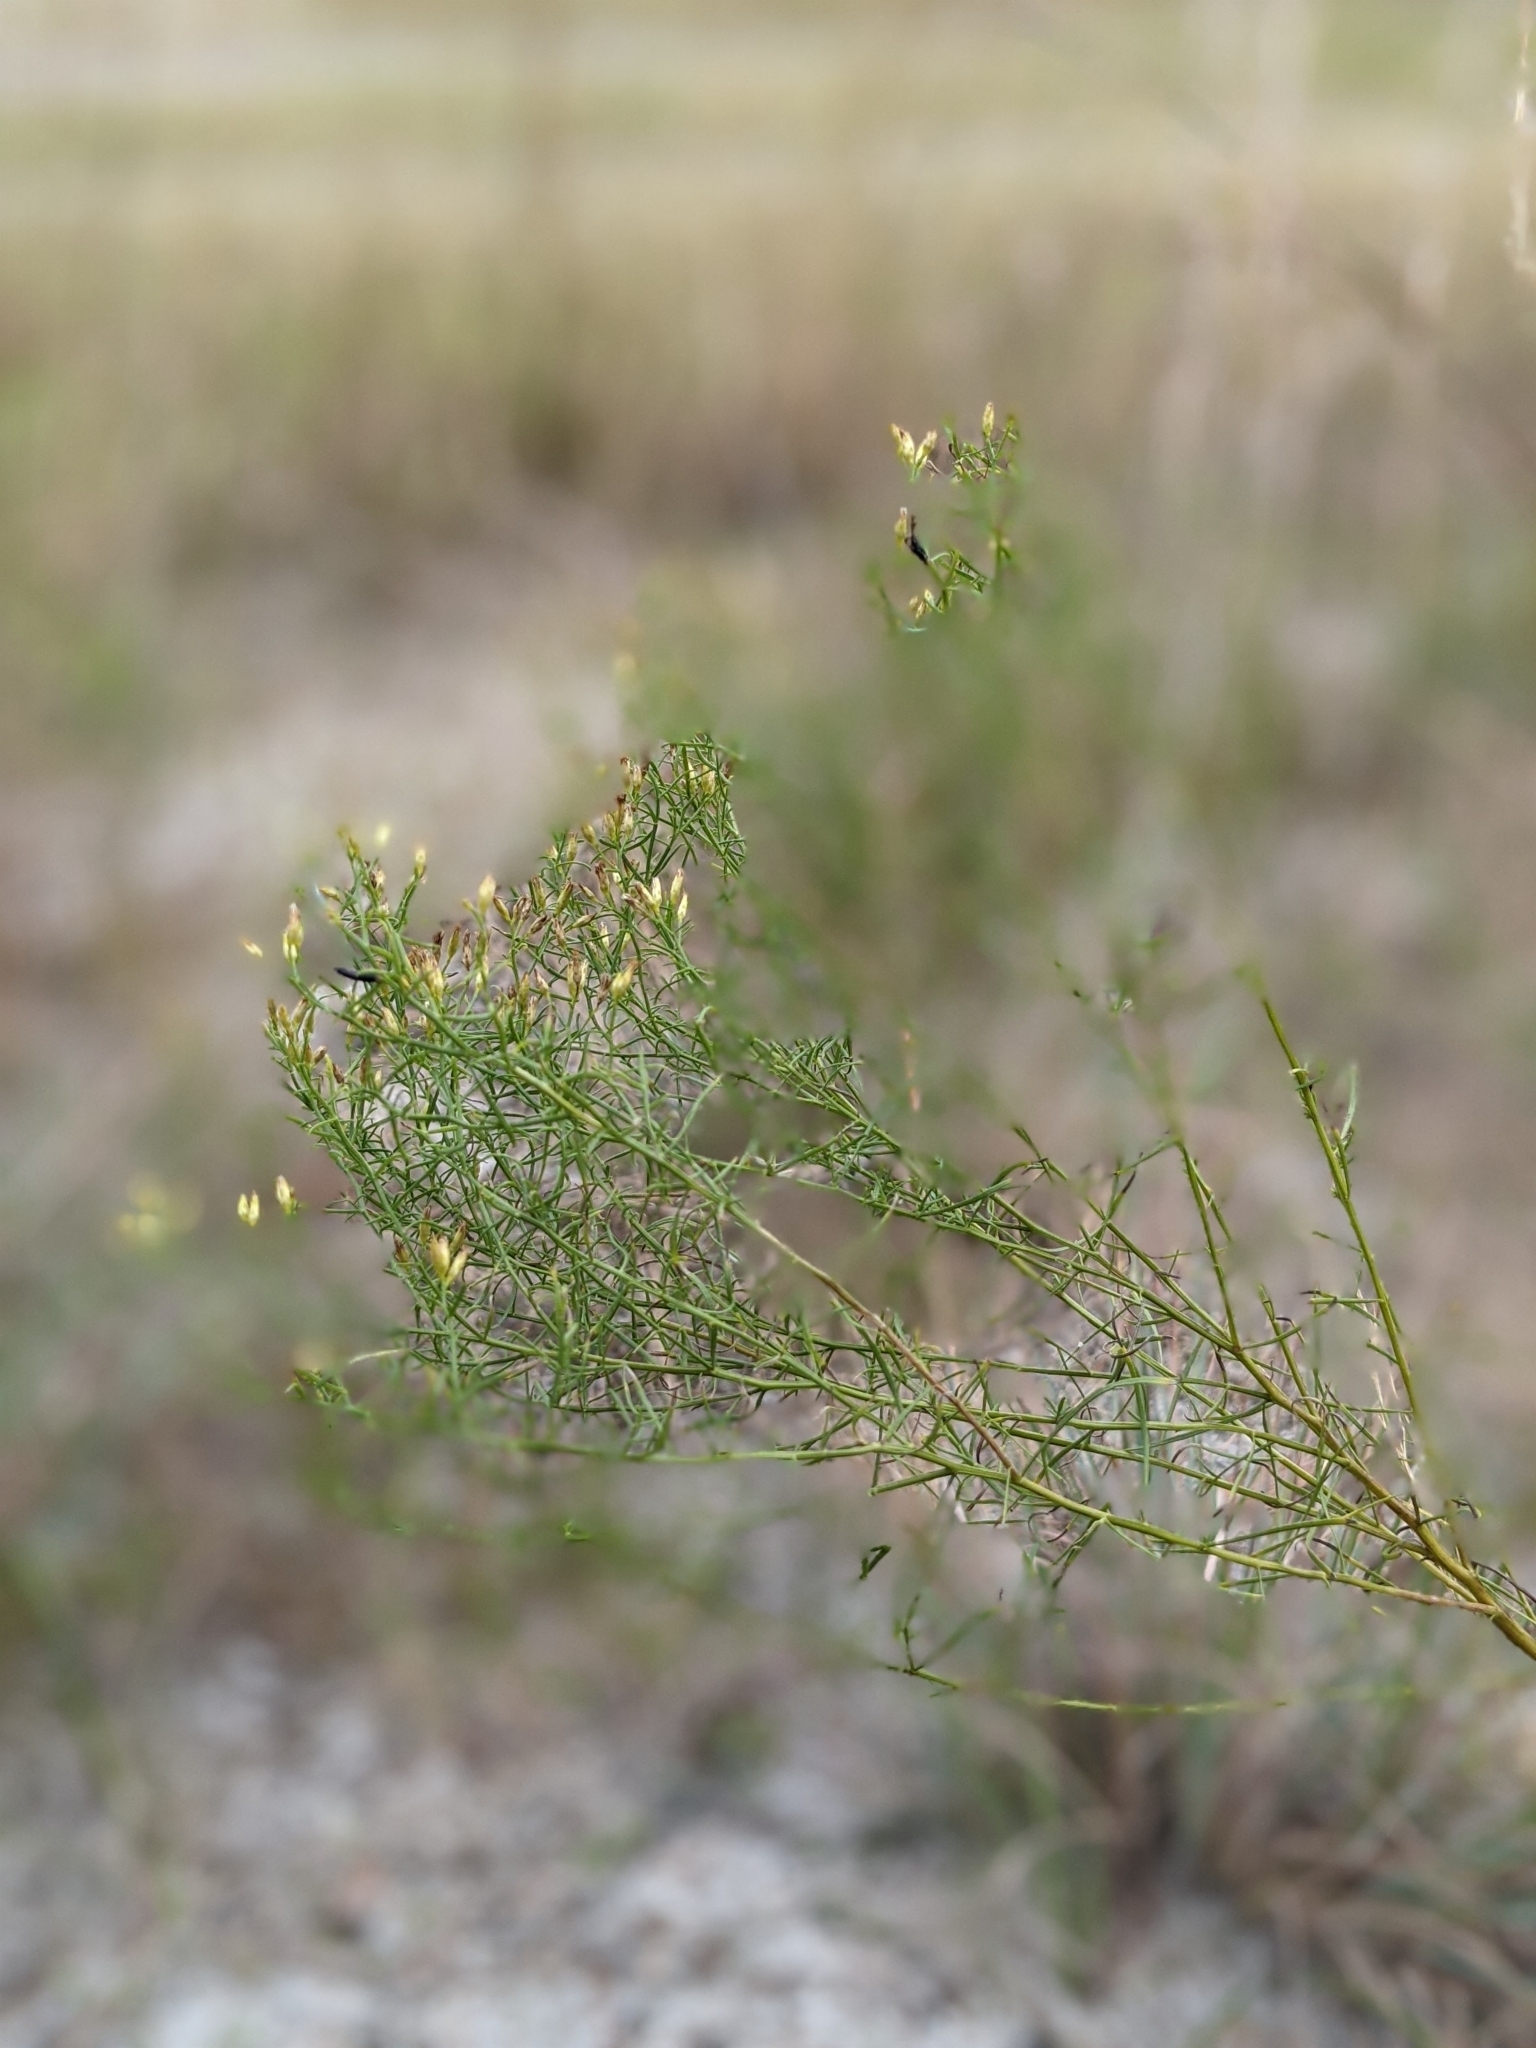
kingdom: Plantae
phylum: Tracheophyta
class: Magnoliopsida
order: Asterales
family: Asteraceae
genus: Euthamia
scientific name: Euthamia caroliniana
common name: Coastal plain goldentop
